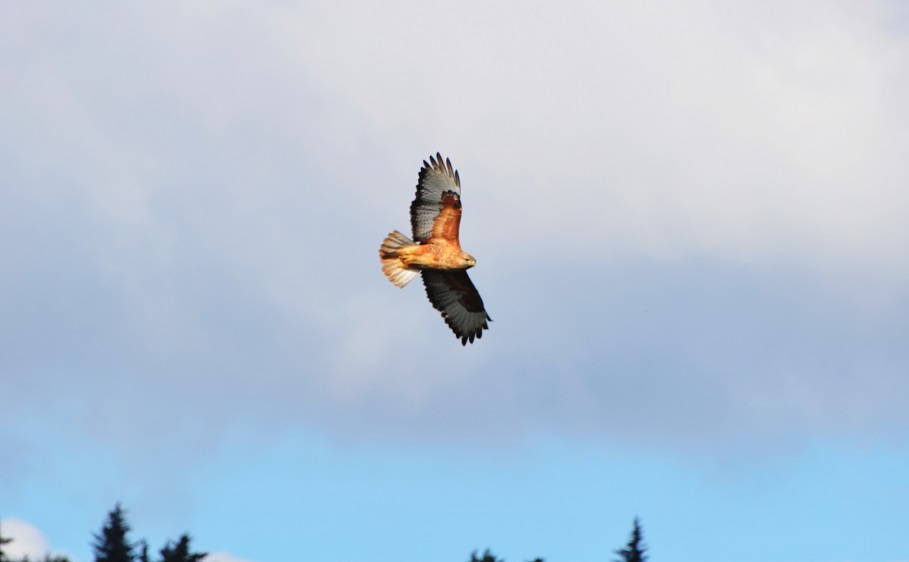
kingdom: Animalia
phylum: Chordata
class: Aves
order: Accipitriformes
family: Accipitridae
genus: Buteo
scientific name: Buteo rufinus
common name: Long-legged buzzard
